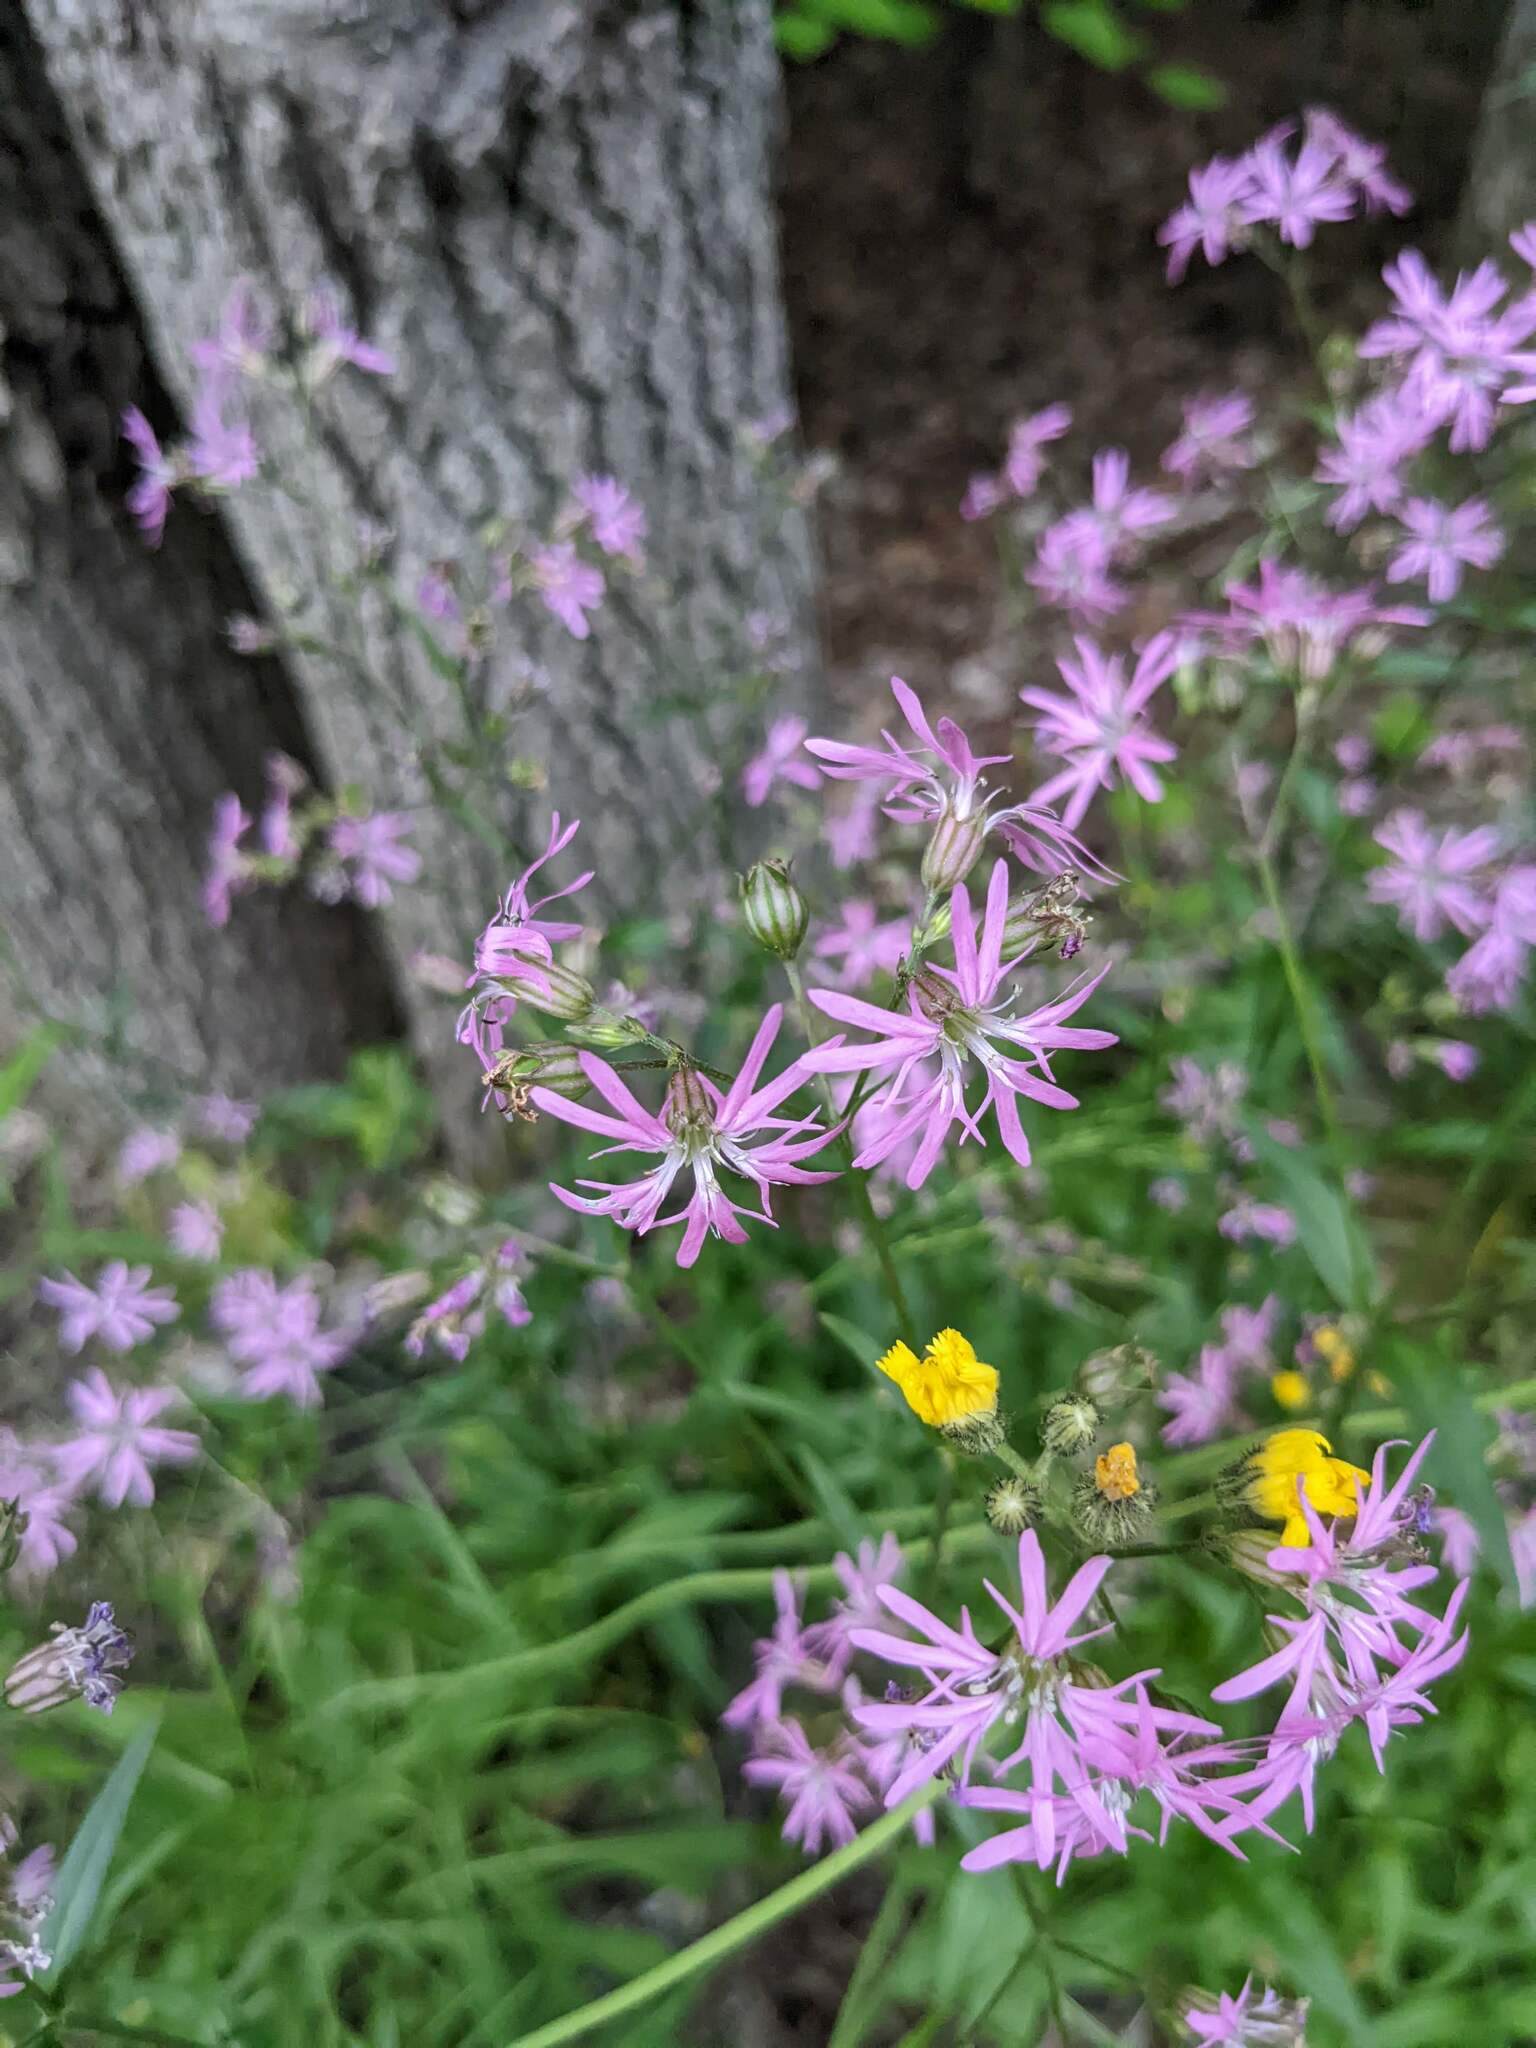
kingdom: Plantae
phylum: Tracheophyta
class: Magnoliopsida
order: Caryophyllales
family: Caryophyllaceae
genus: Silene
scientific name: Silene flos-cuculi
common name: Ragged-robin
